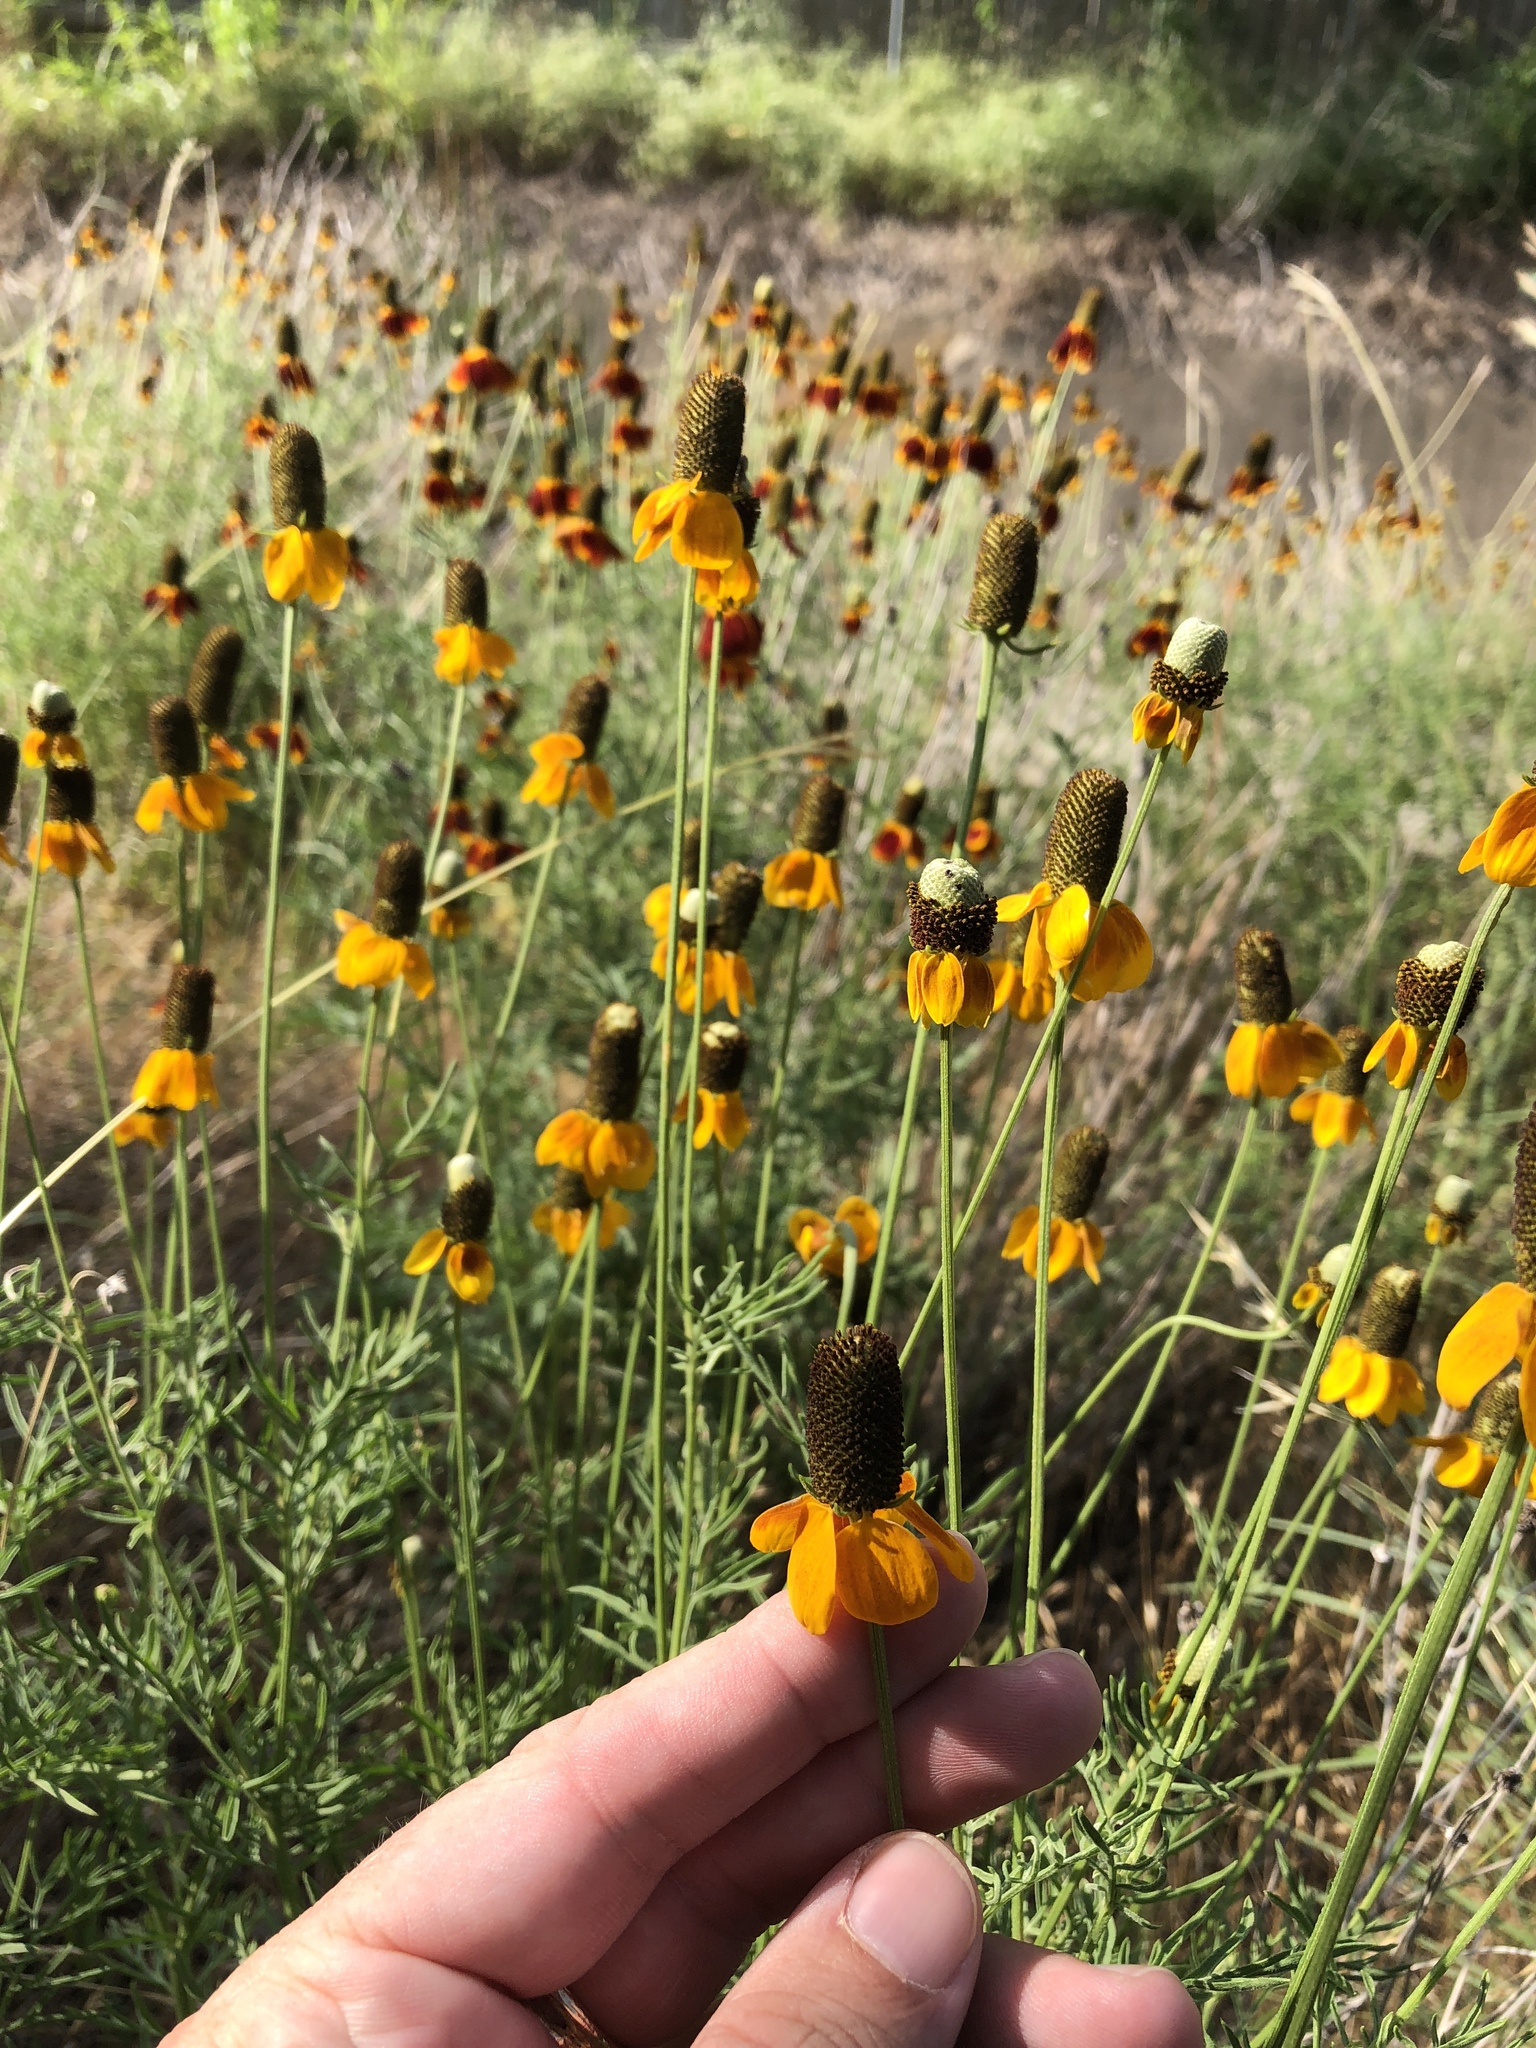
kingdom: Plantae
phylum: Tracheophyta
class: Magnoliopsida
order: Asterales
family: Asteraceae
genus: Ratibida
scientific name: Ratibida columnifera
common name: Prairie coneflower
